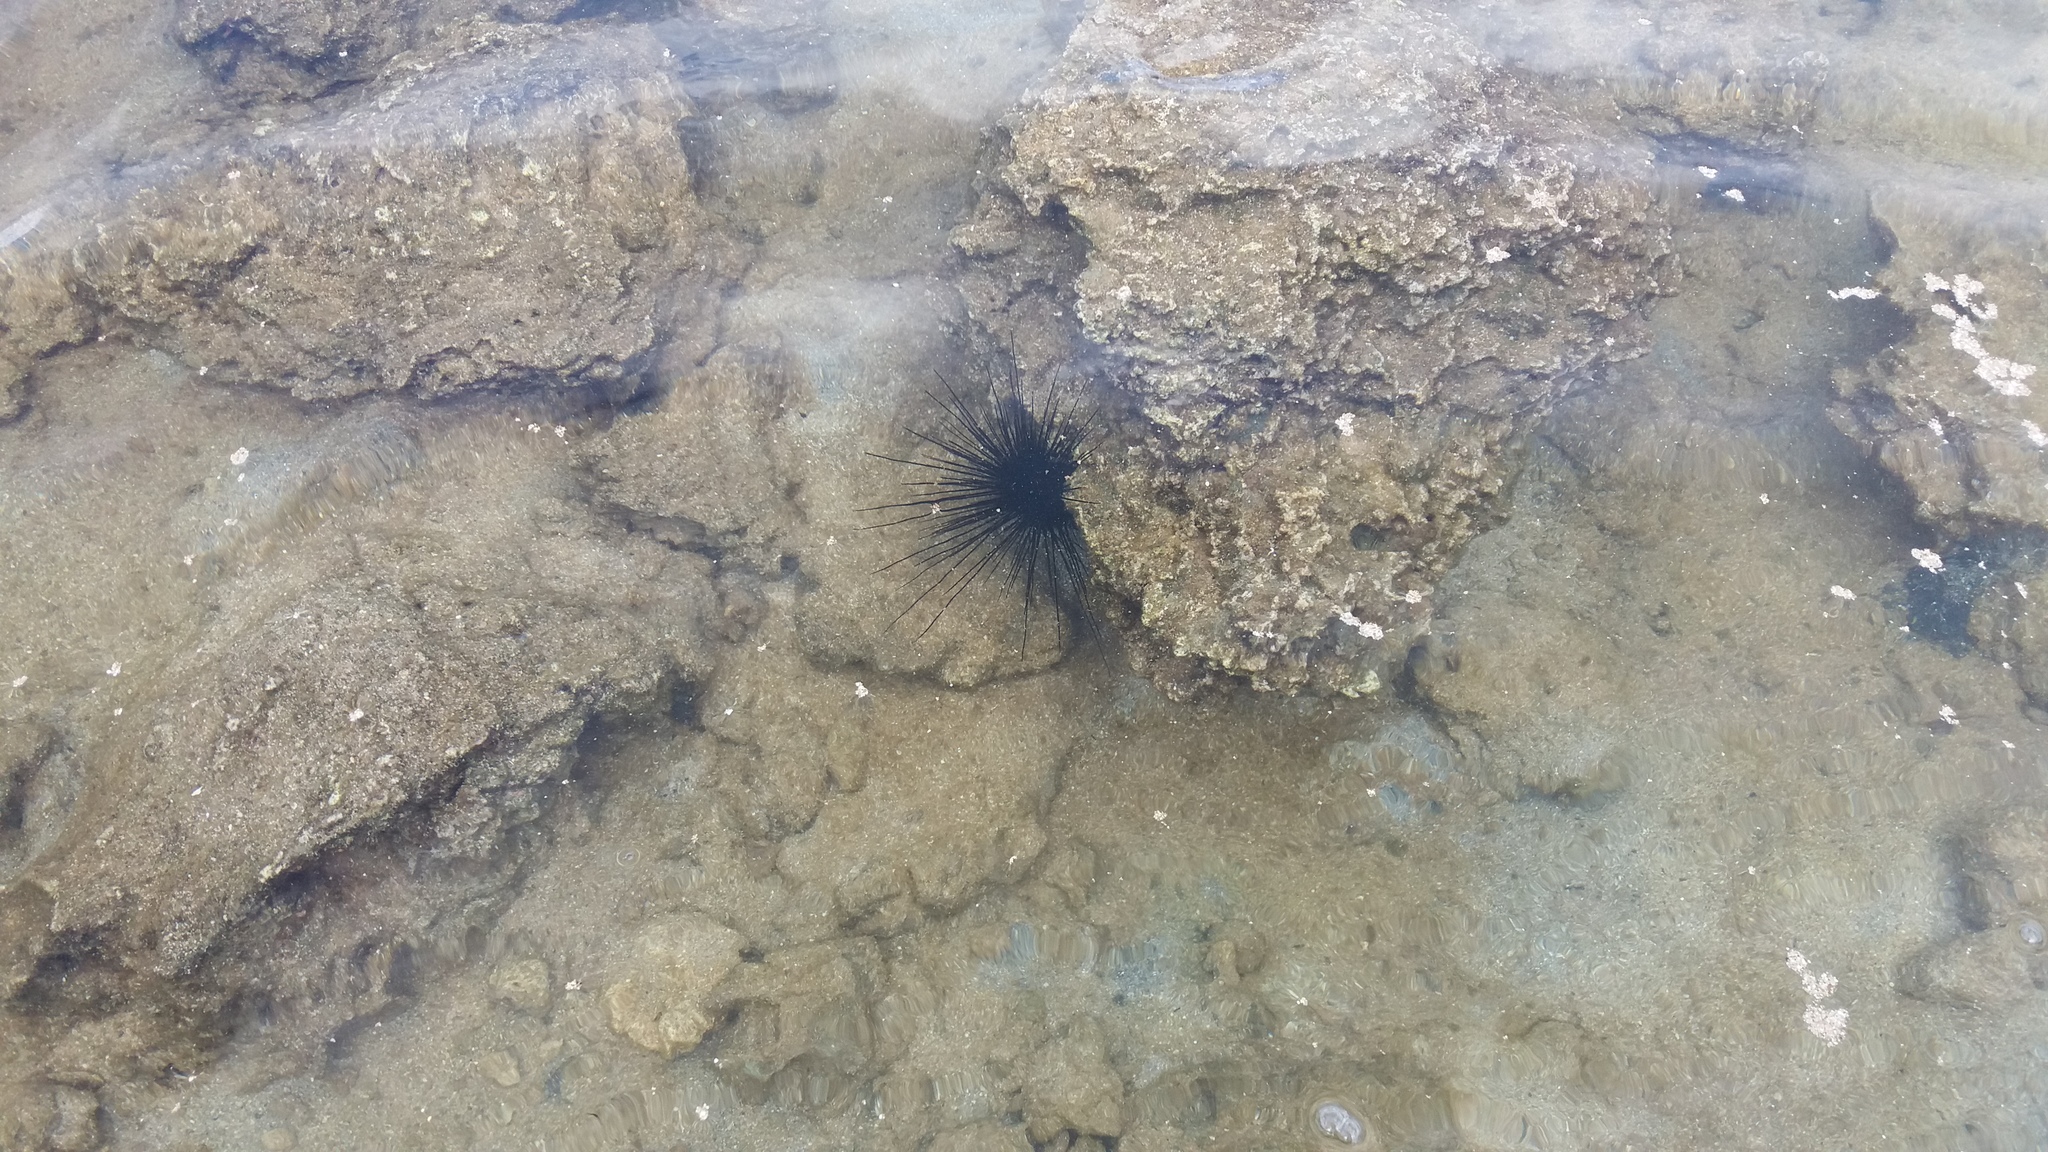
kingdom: Animalia
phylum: Echinodermata
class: Echinoidea
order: Diadematoida
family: Diadematidae
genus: Diadema
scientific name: Diadema paucispinum
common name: Nadel-seeigel
